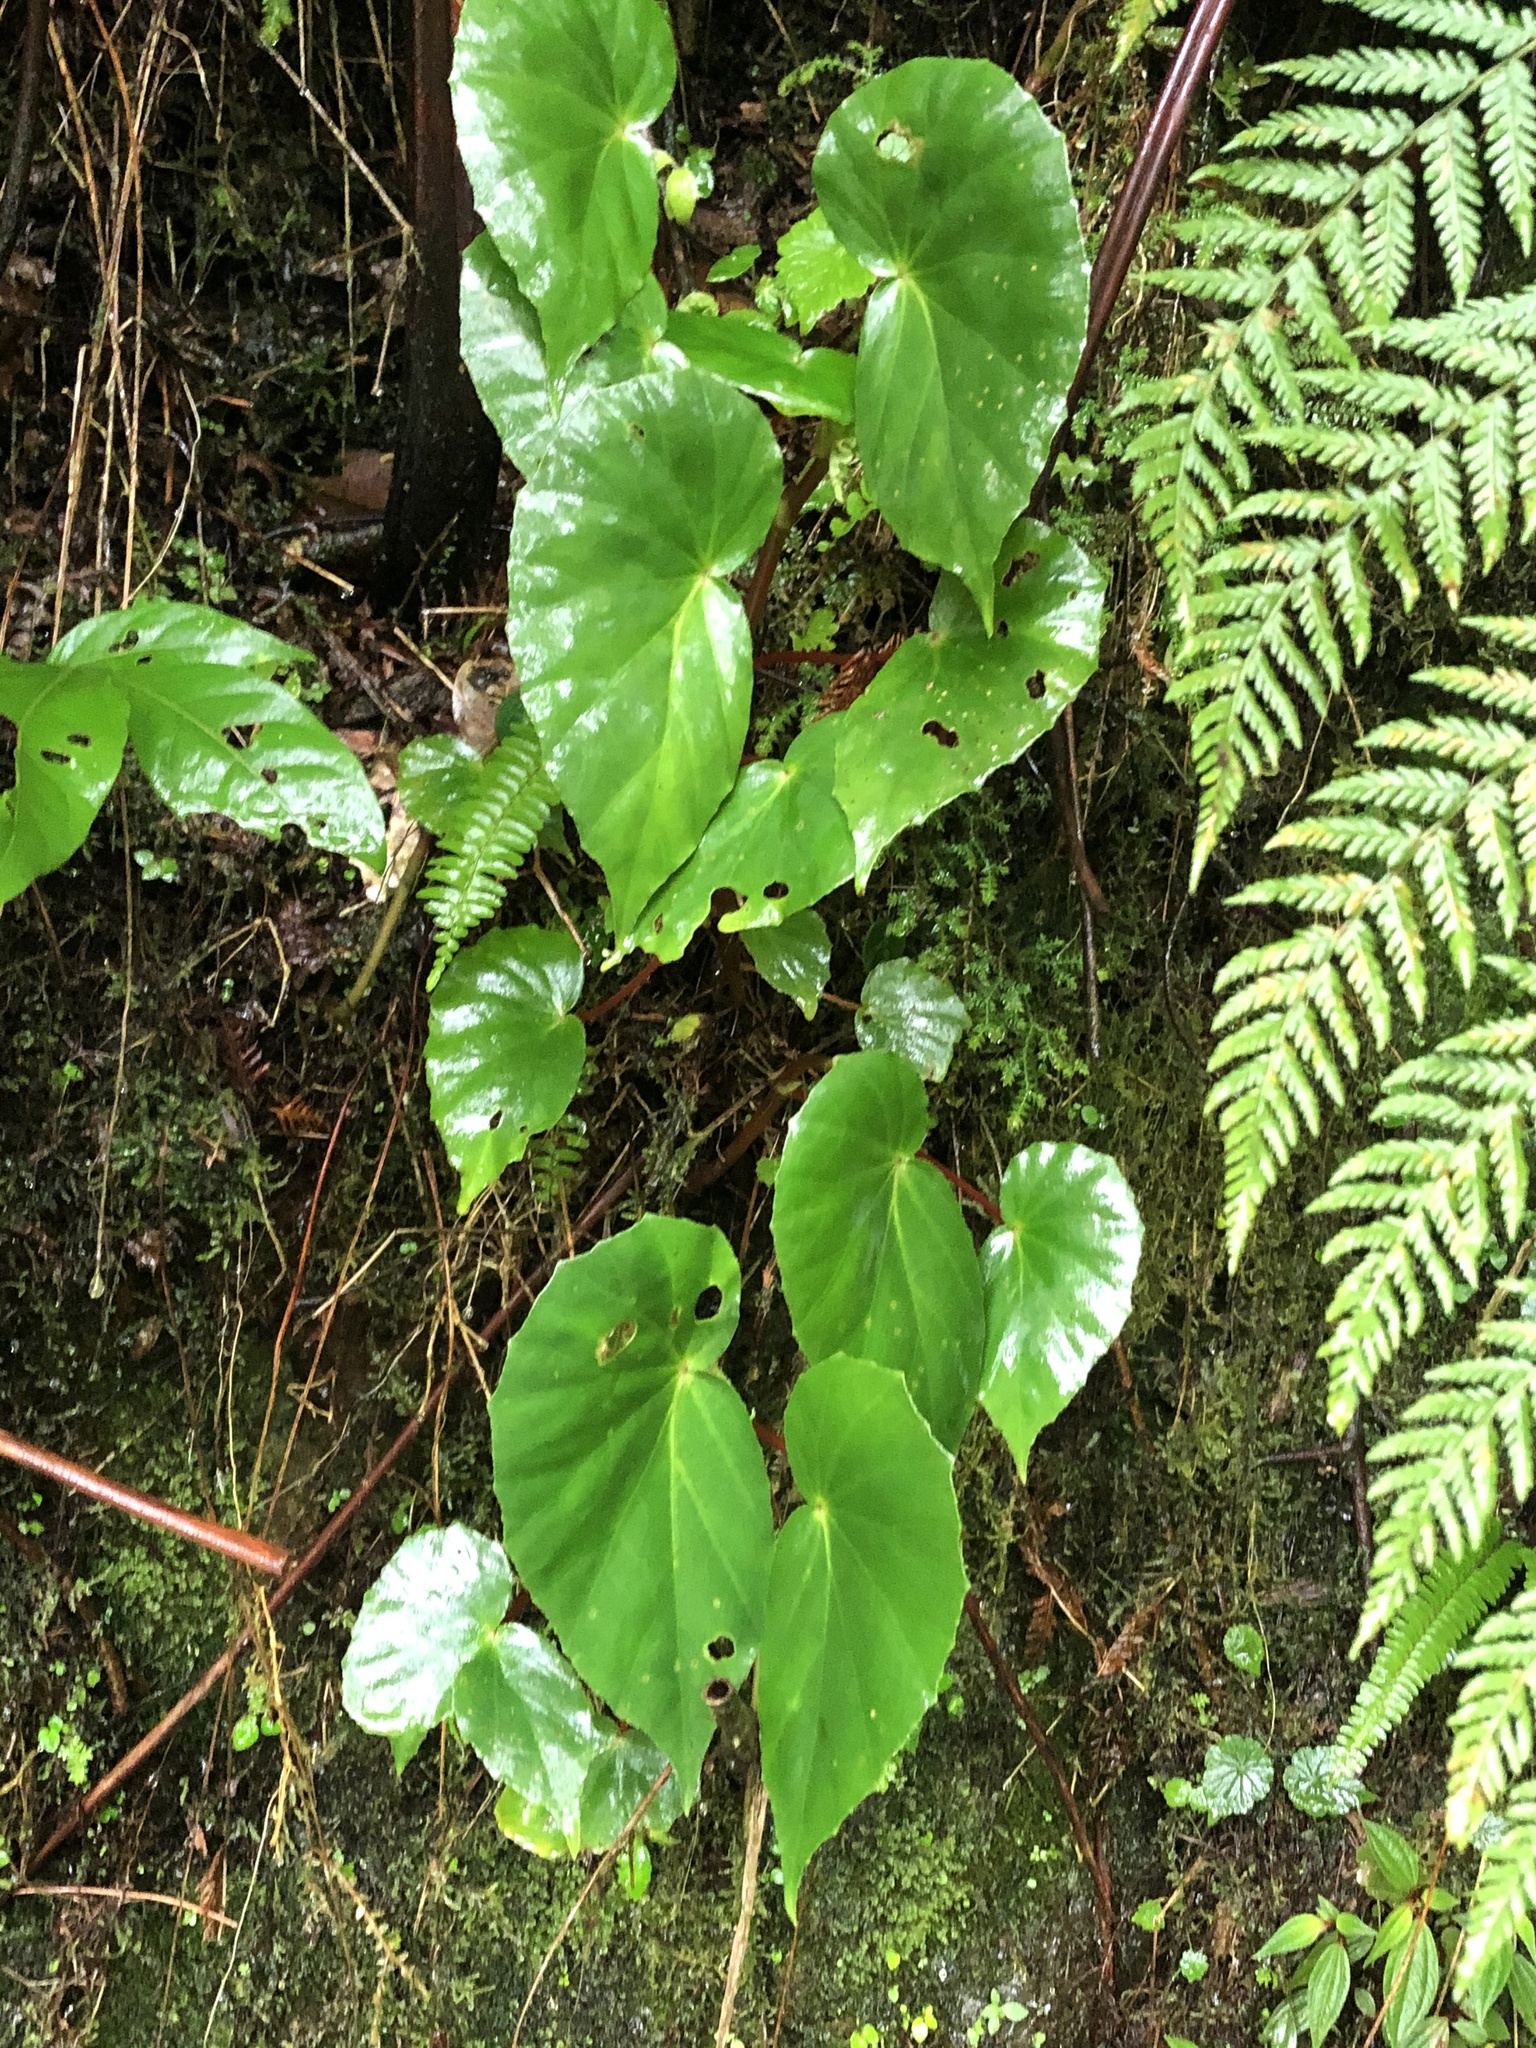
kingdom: Plantae
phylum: Tracheophyta
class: Magnoliopsida
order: Cucurbitales
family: Begoniaceae
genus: Begonia
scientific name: Begonia stenotepala
